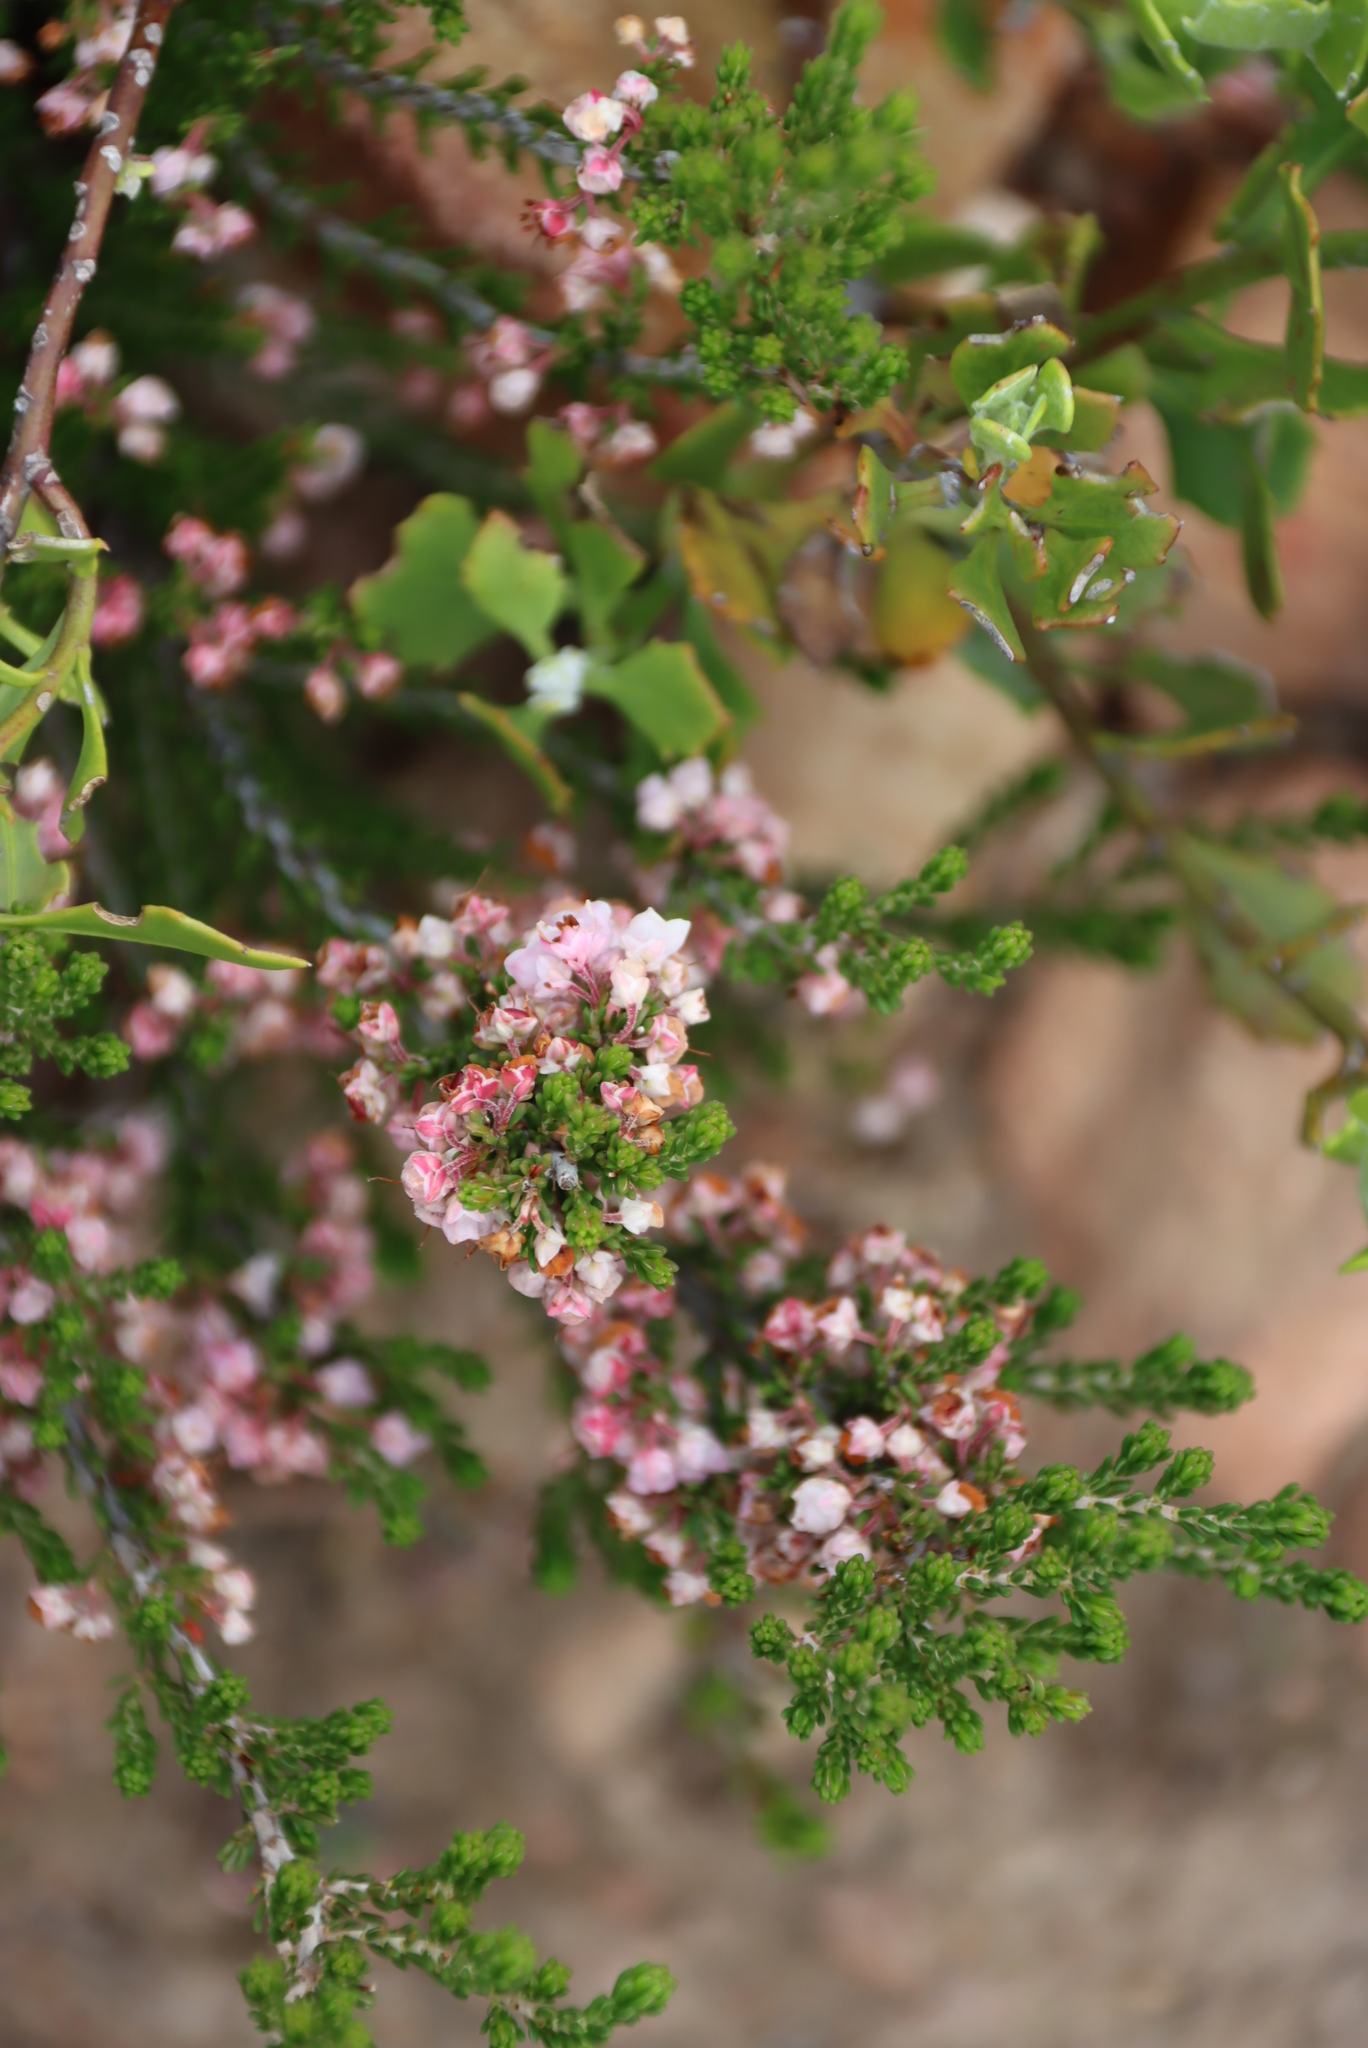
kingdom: Plantae
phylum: Tracheophyta
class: Magnoliopsida
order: Ericales
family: Ericaceae
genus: Erica
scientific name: Erica umbelliflora
